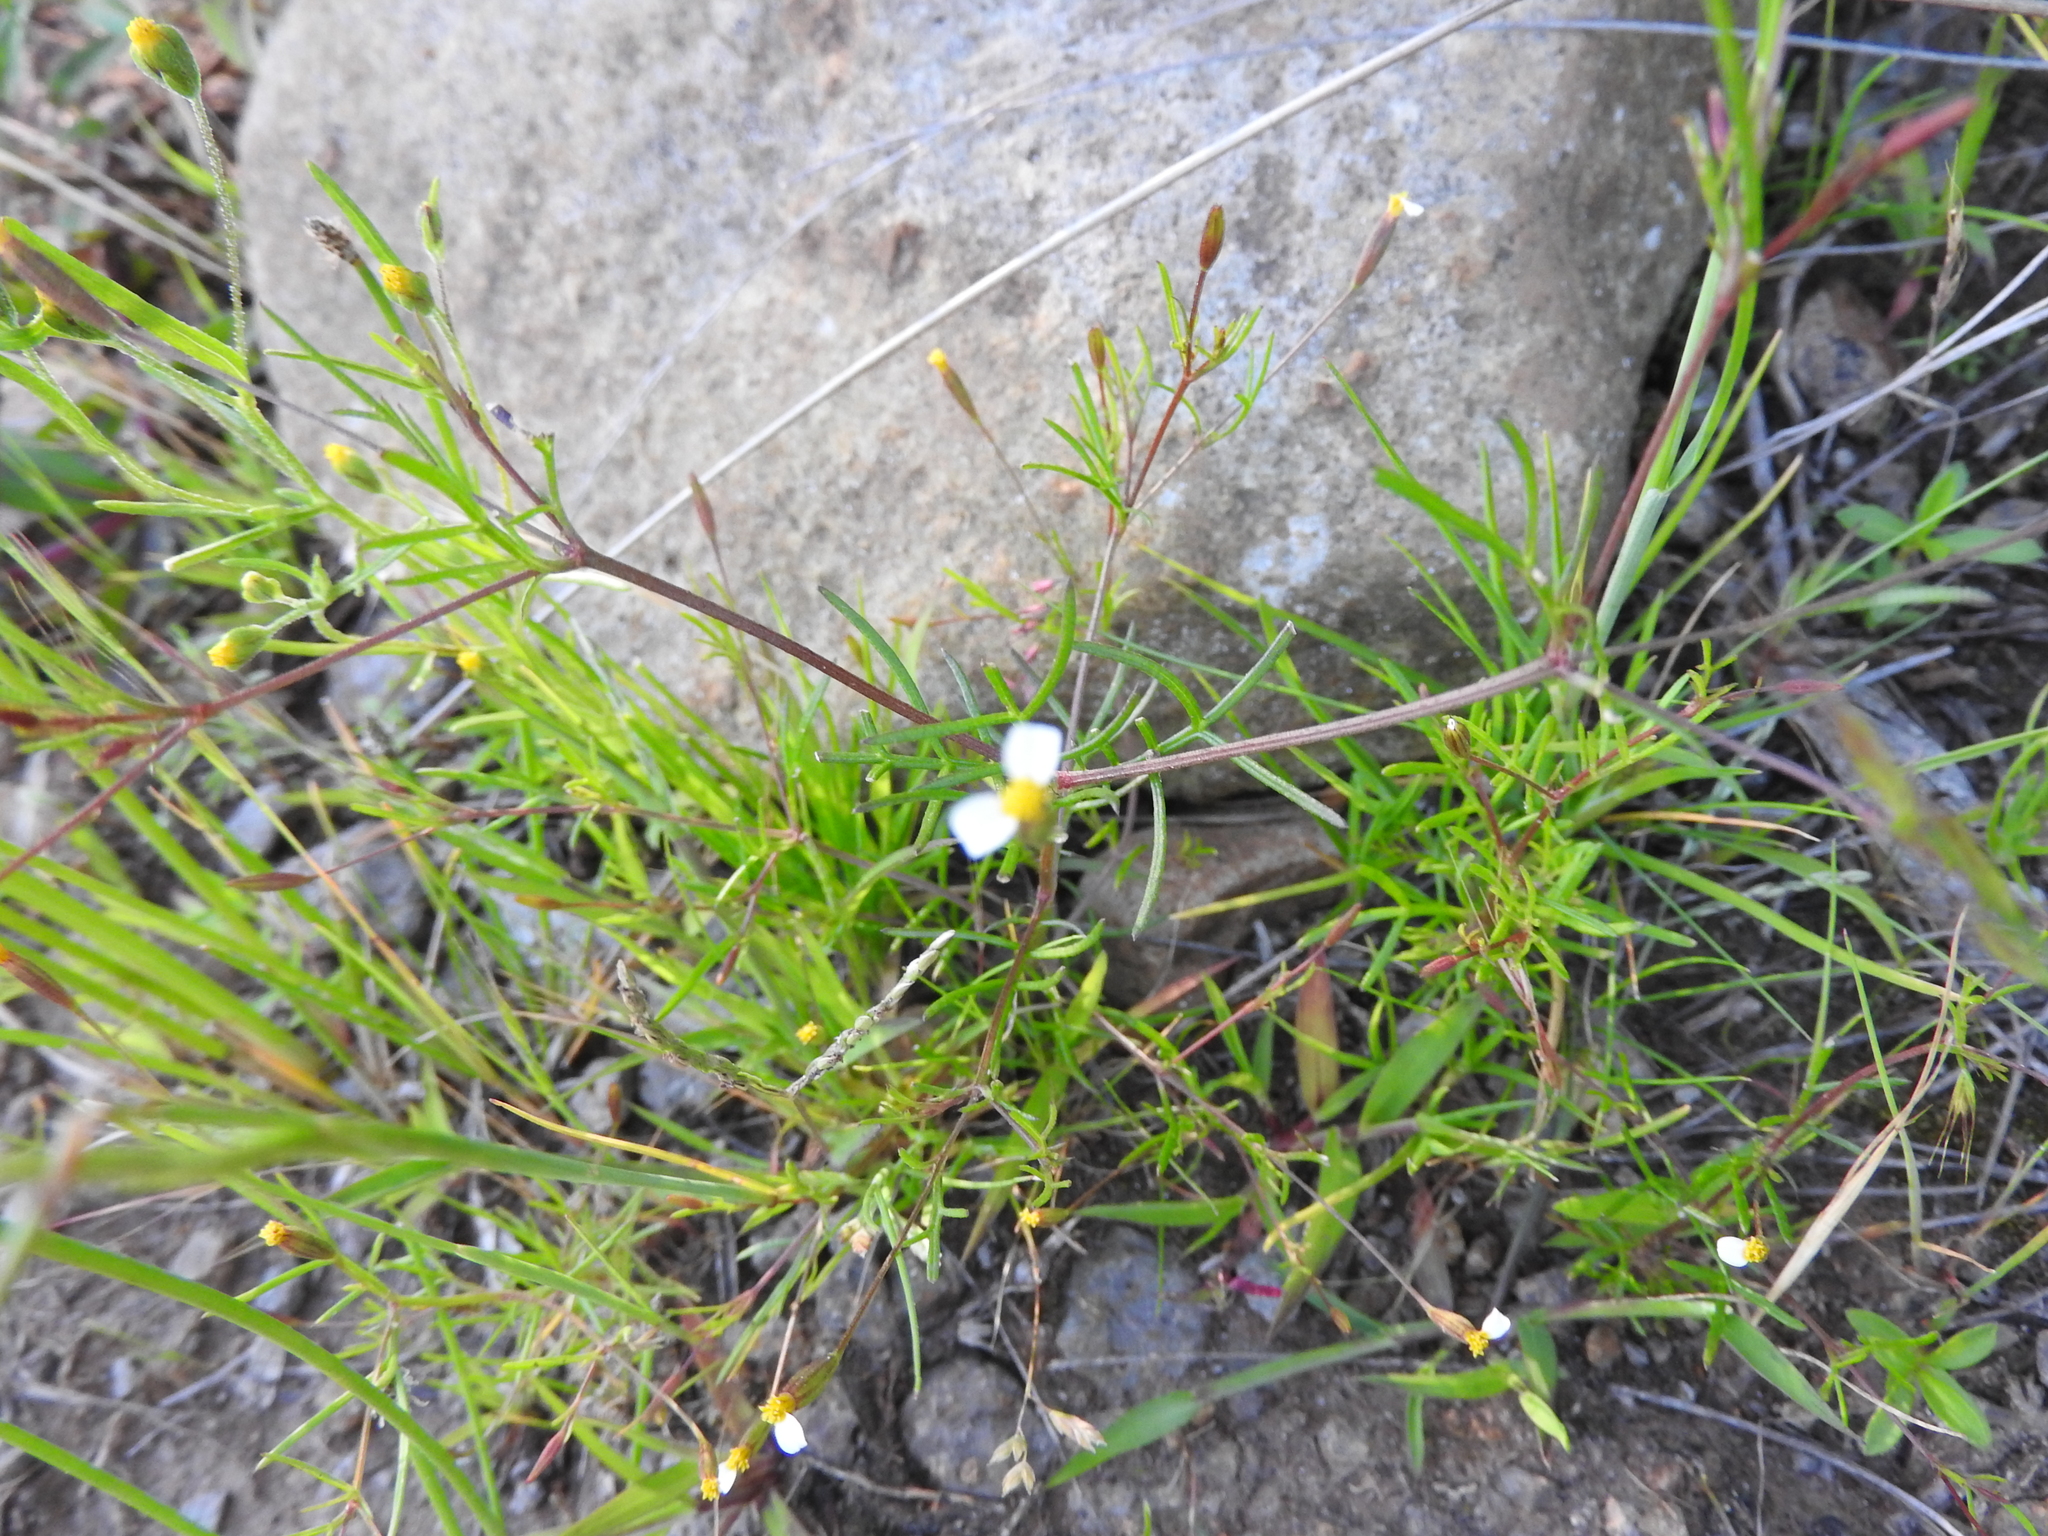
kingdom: Plantae
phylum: Tracheophyta
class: Magnoliopsida
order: Asterales
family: Asteraceae
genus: Tagetes
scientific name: Tagetes filifolia
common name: Lesser marigold
